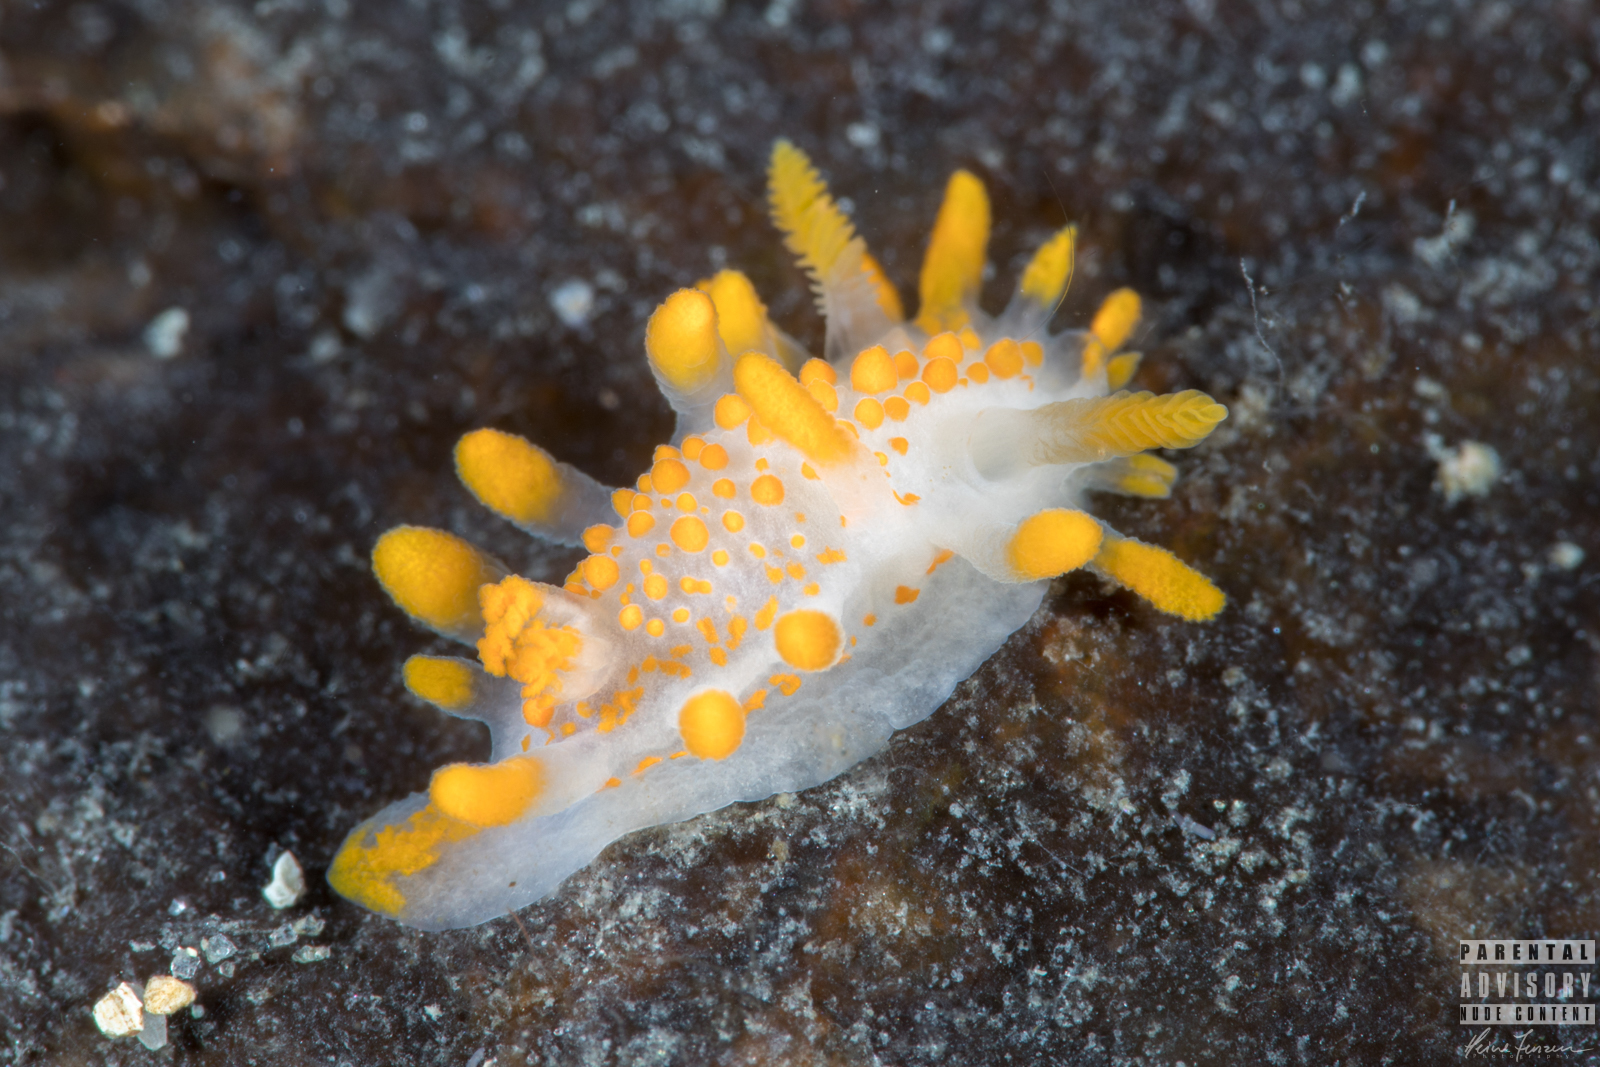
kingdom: Animalia
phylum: Mollusca
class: Gastropoda
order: Nudibranchia
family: Polyceridae
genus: Limacia
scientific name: Limacia clavigera
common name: Orange-clubbed sea slug
